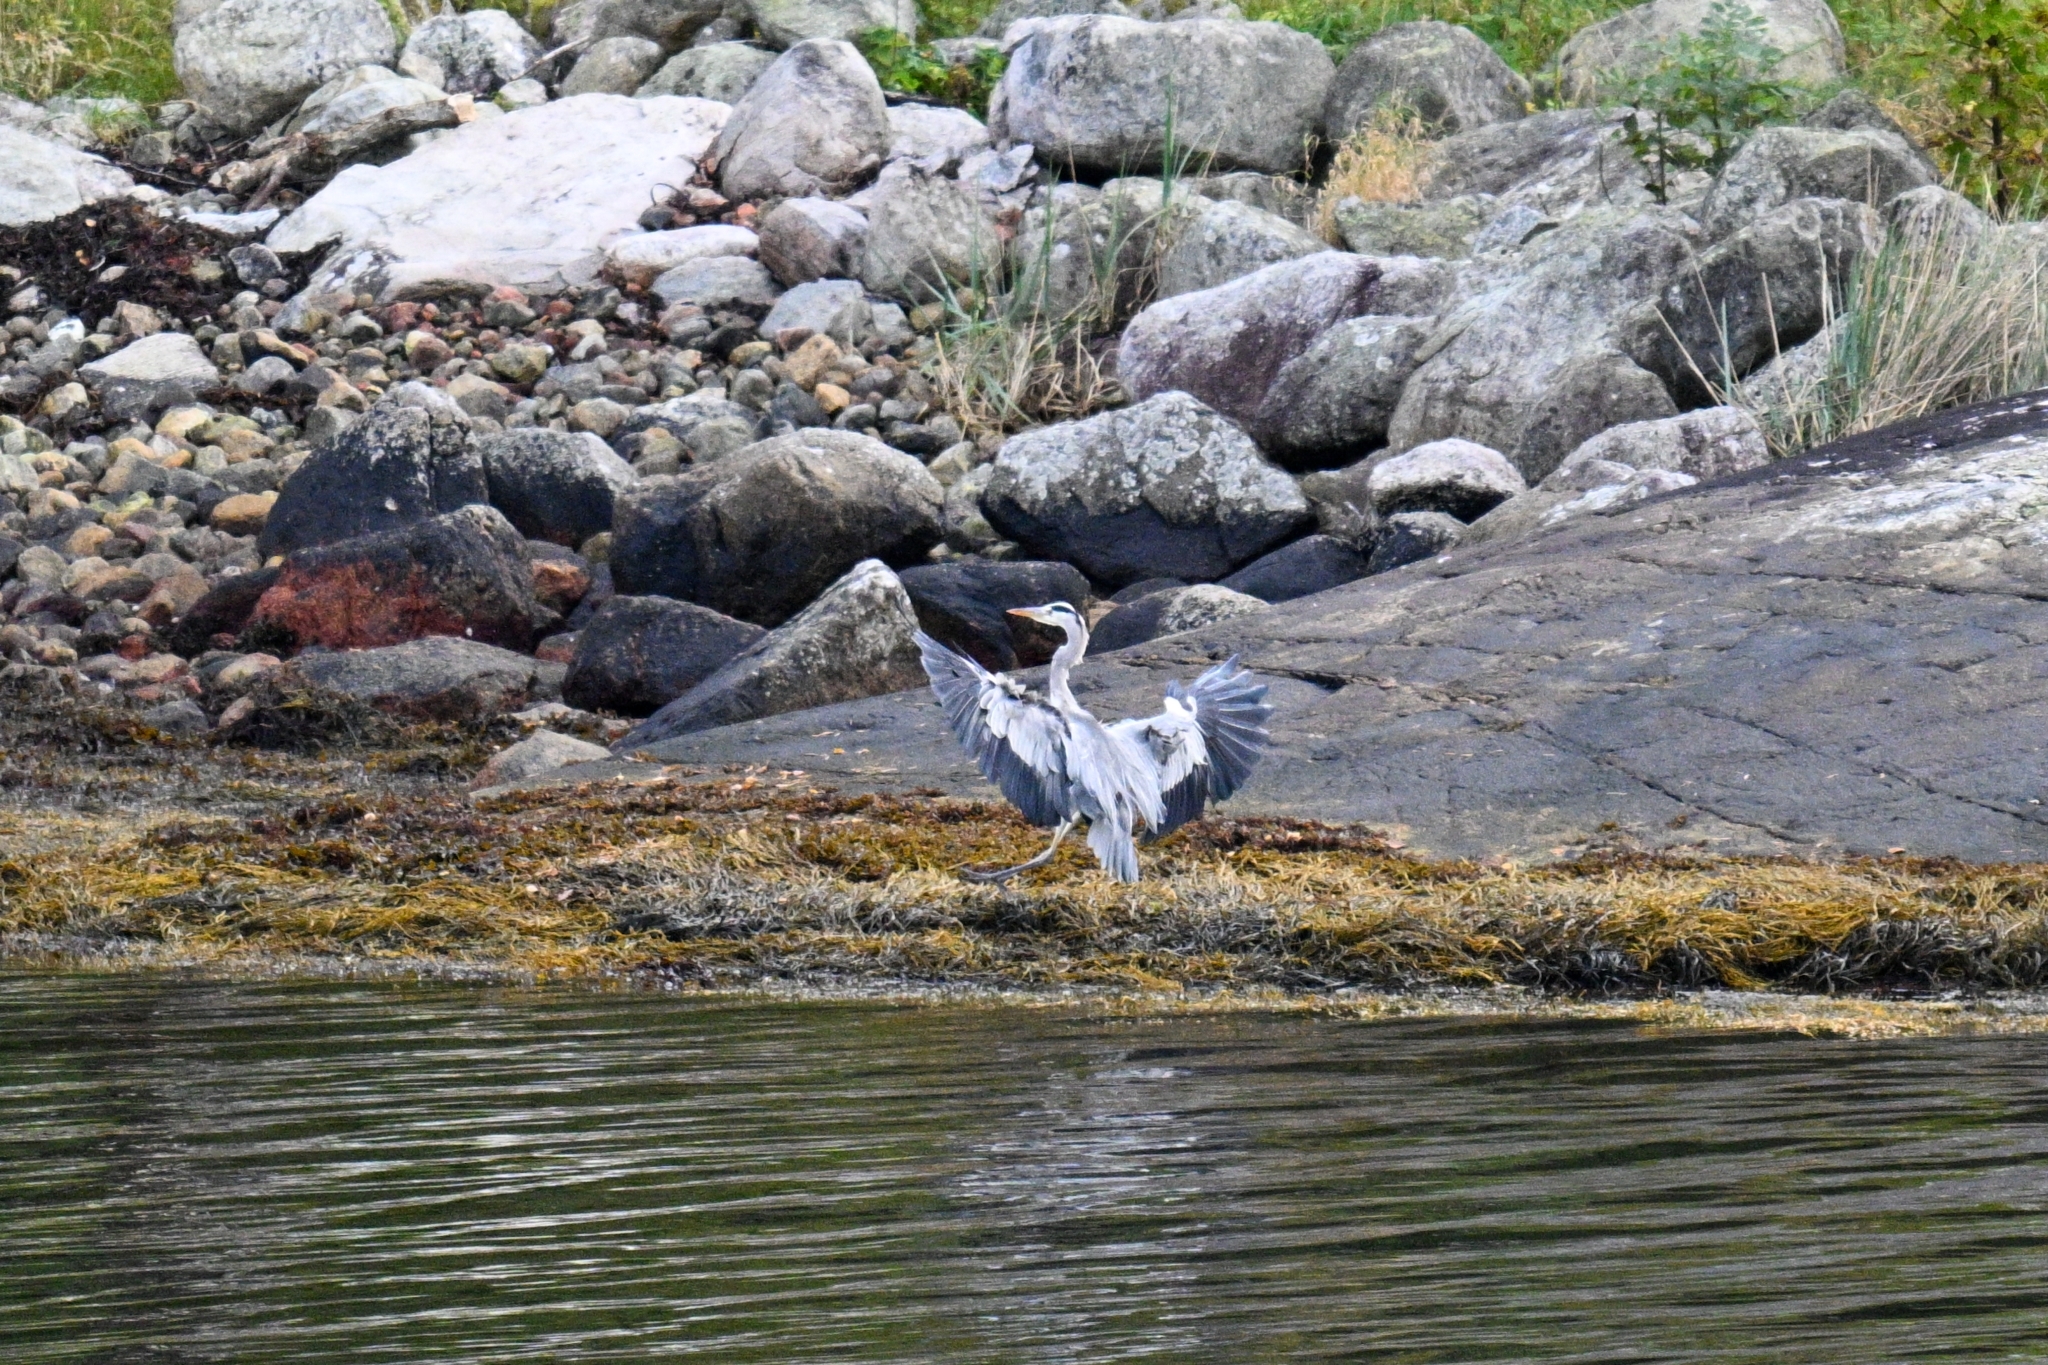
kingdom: Animalia
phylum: Chordata
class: Aves
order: Pelecaniformes
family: Ardeidae
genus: Ardea
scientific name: Ardea cinerea
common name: Grey heron
